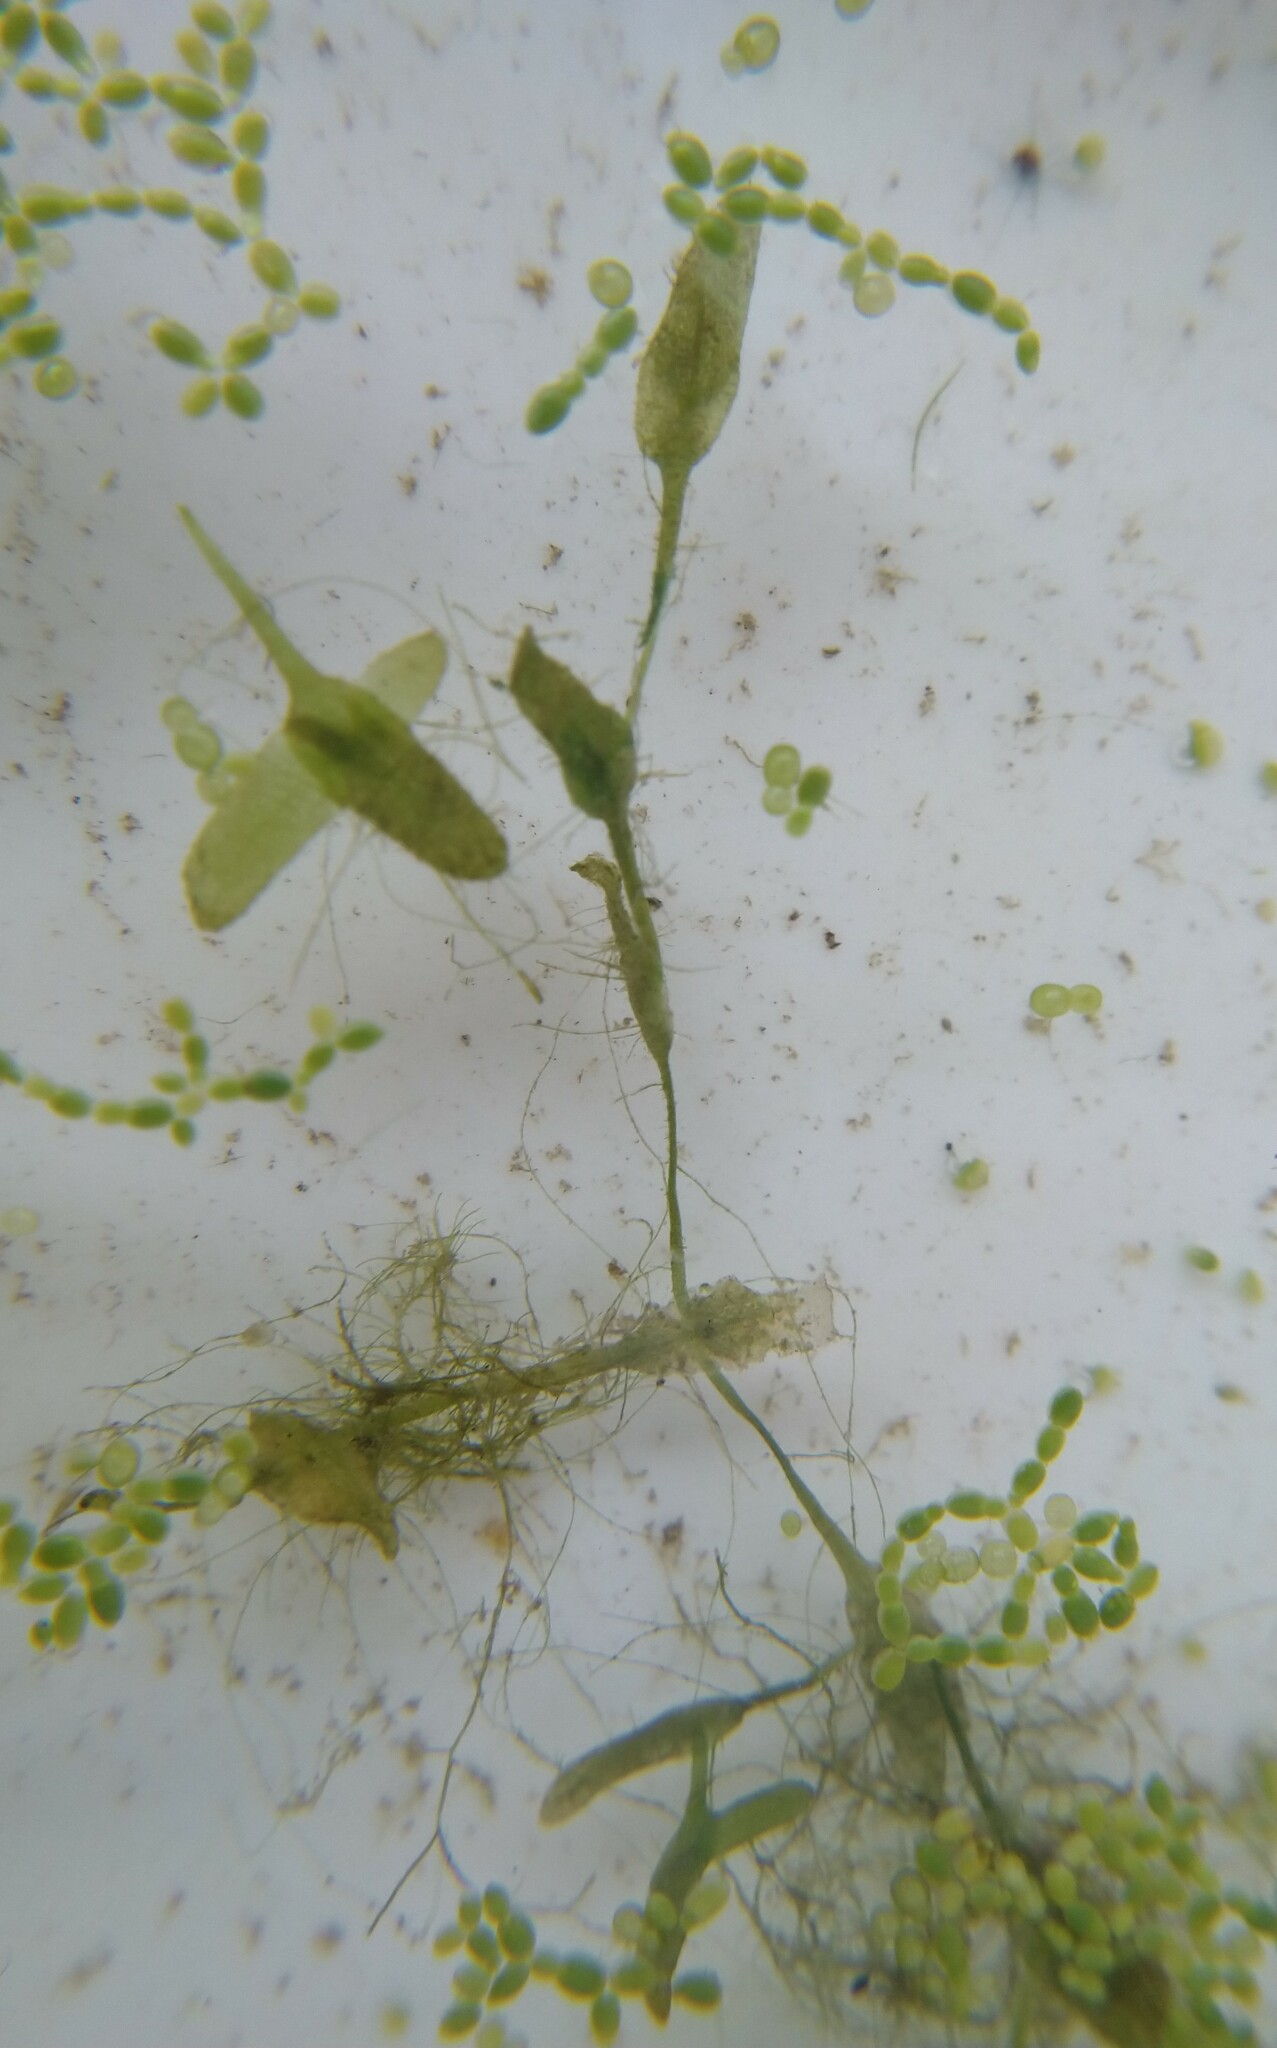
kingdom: Plantae
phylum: Tracheophyta
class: Liliopsida
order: Alismatales
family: Araceae
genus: Lemna
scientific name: Lemna trisulca
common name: Ivy-leaved duckweed
